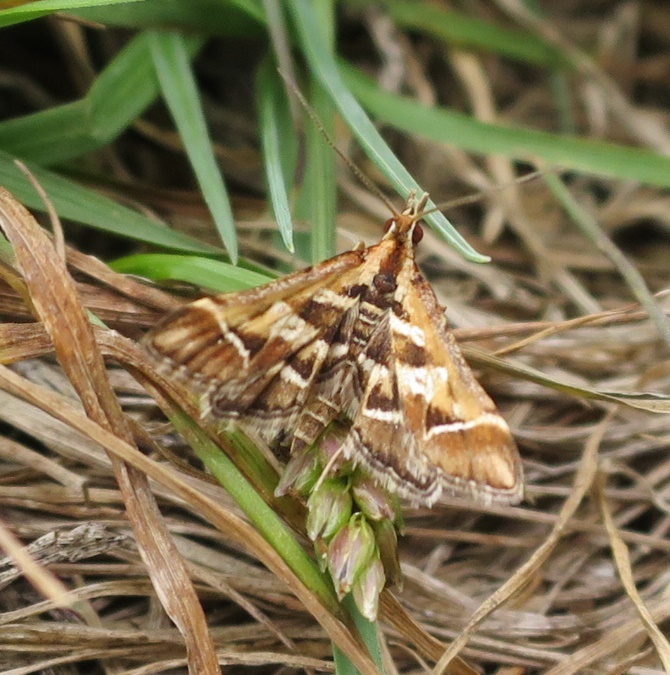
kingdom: Animalia
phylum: Arthropoda
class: Insecta
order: Lepidoptera
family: Crambidae
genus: Diasemia
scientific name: Diasemia grammalis
